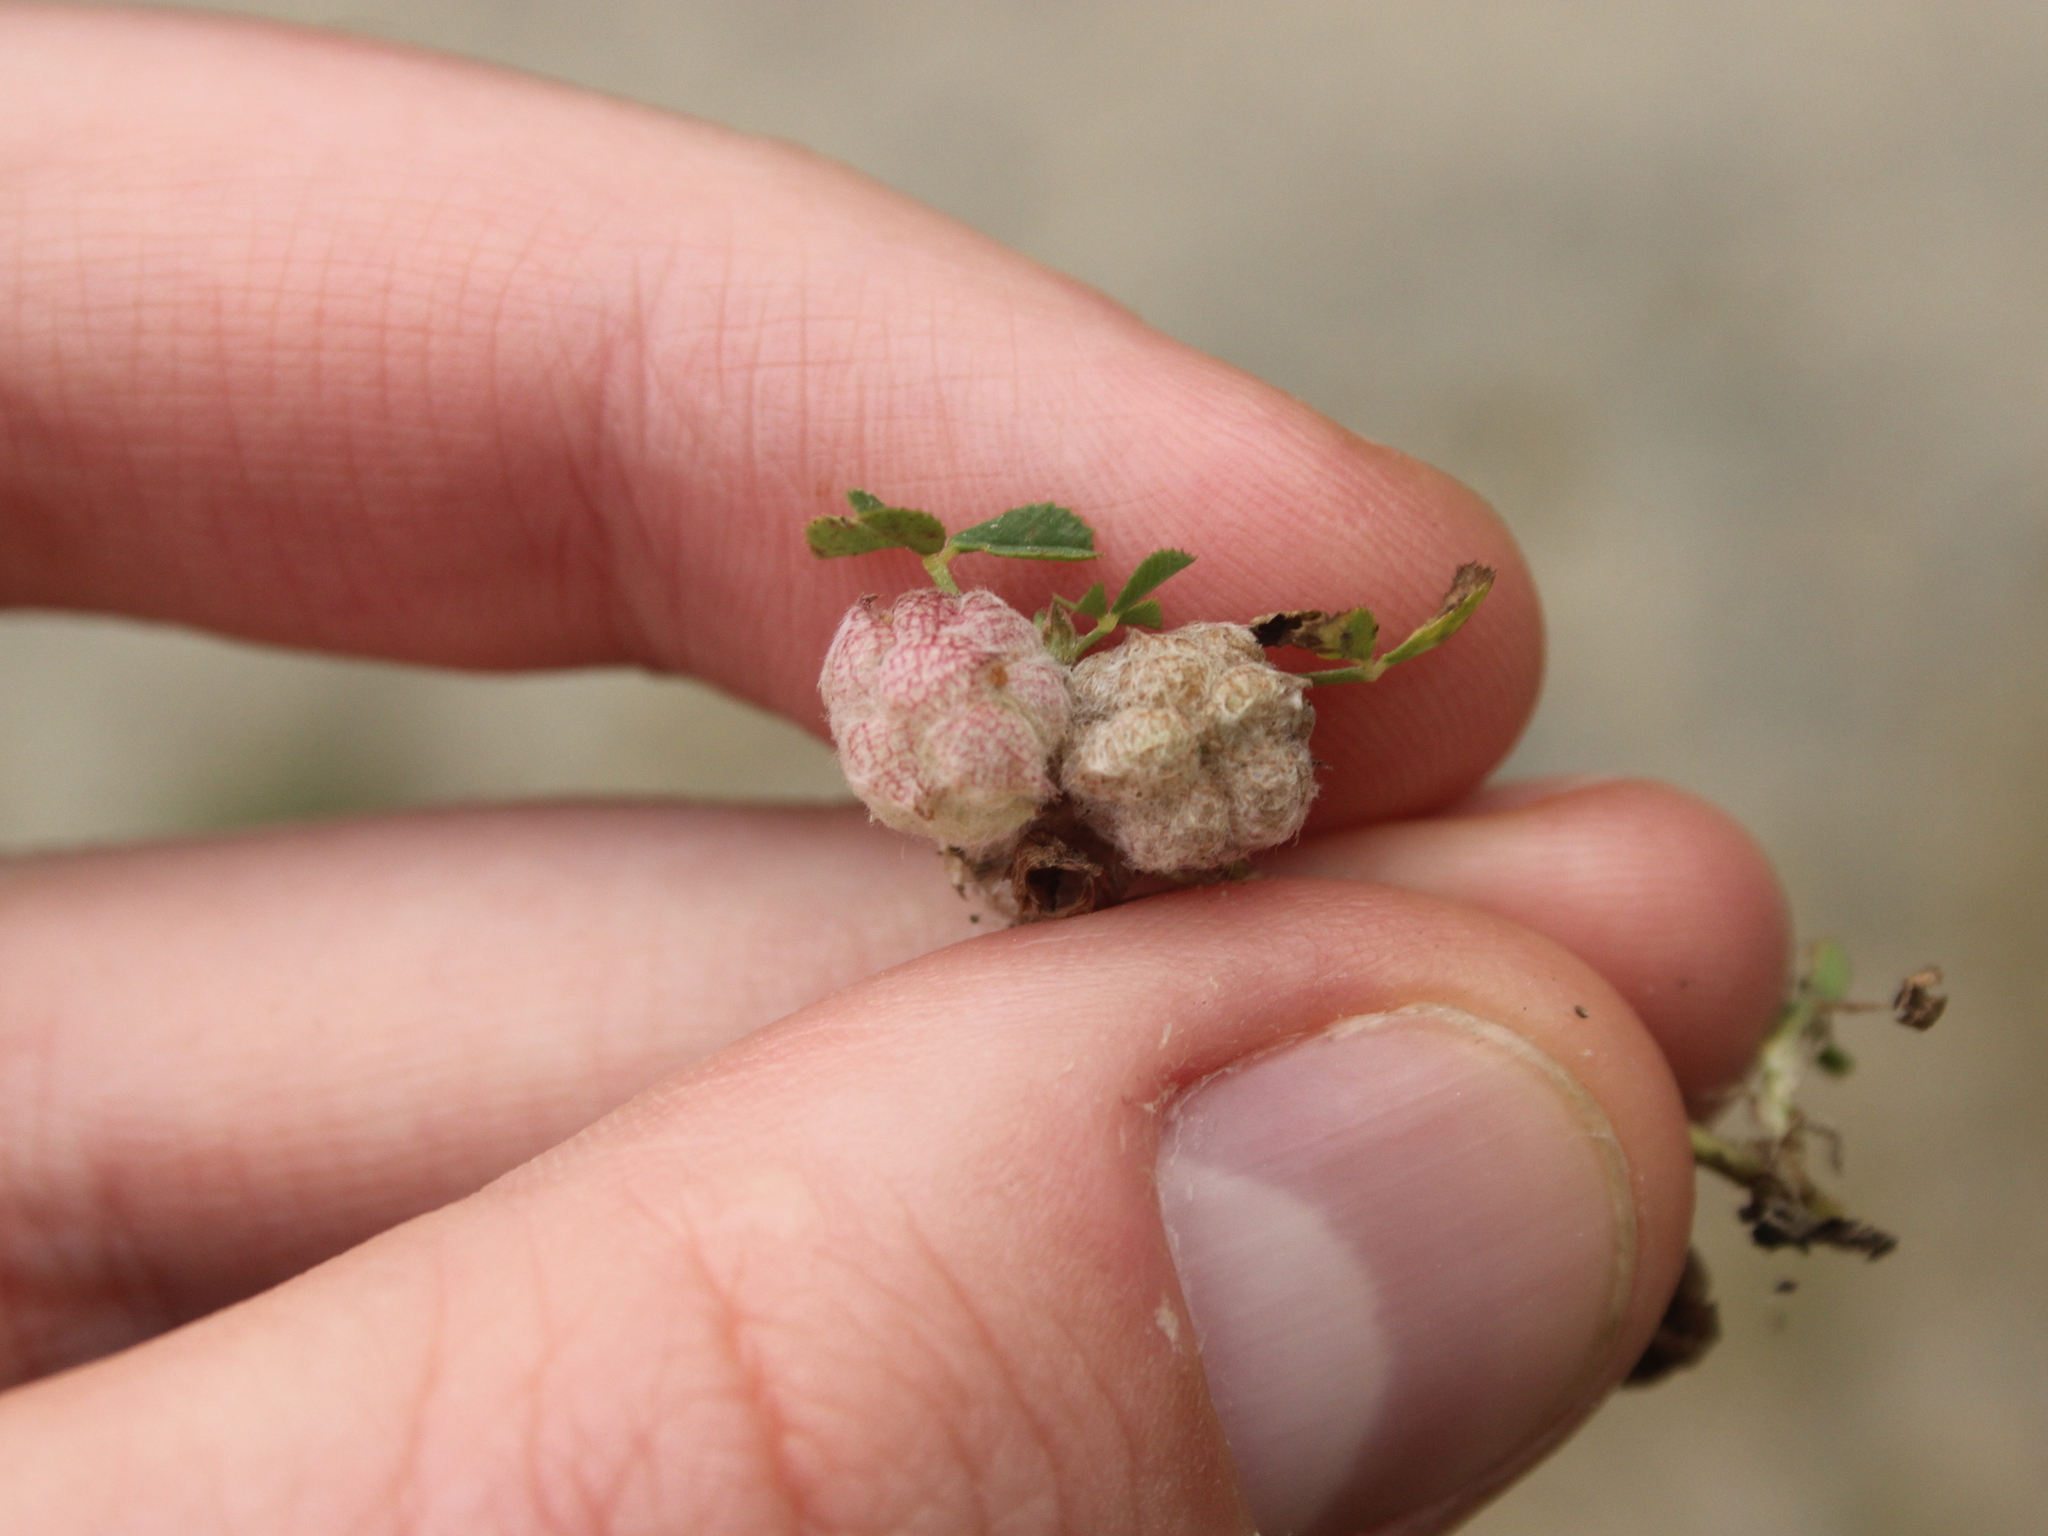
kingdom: Plantae
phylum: Tracheophyta
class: Magnoliopsida
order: Fabales
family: Fabaceae
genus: Trifolium
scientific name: Trifolium tomentosum
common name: Woolly clover
